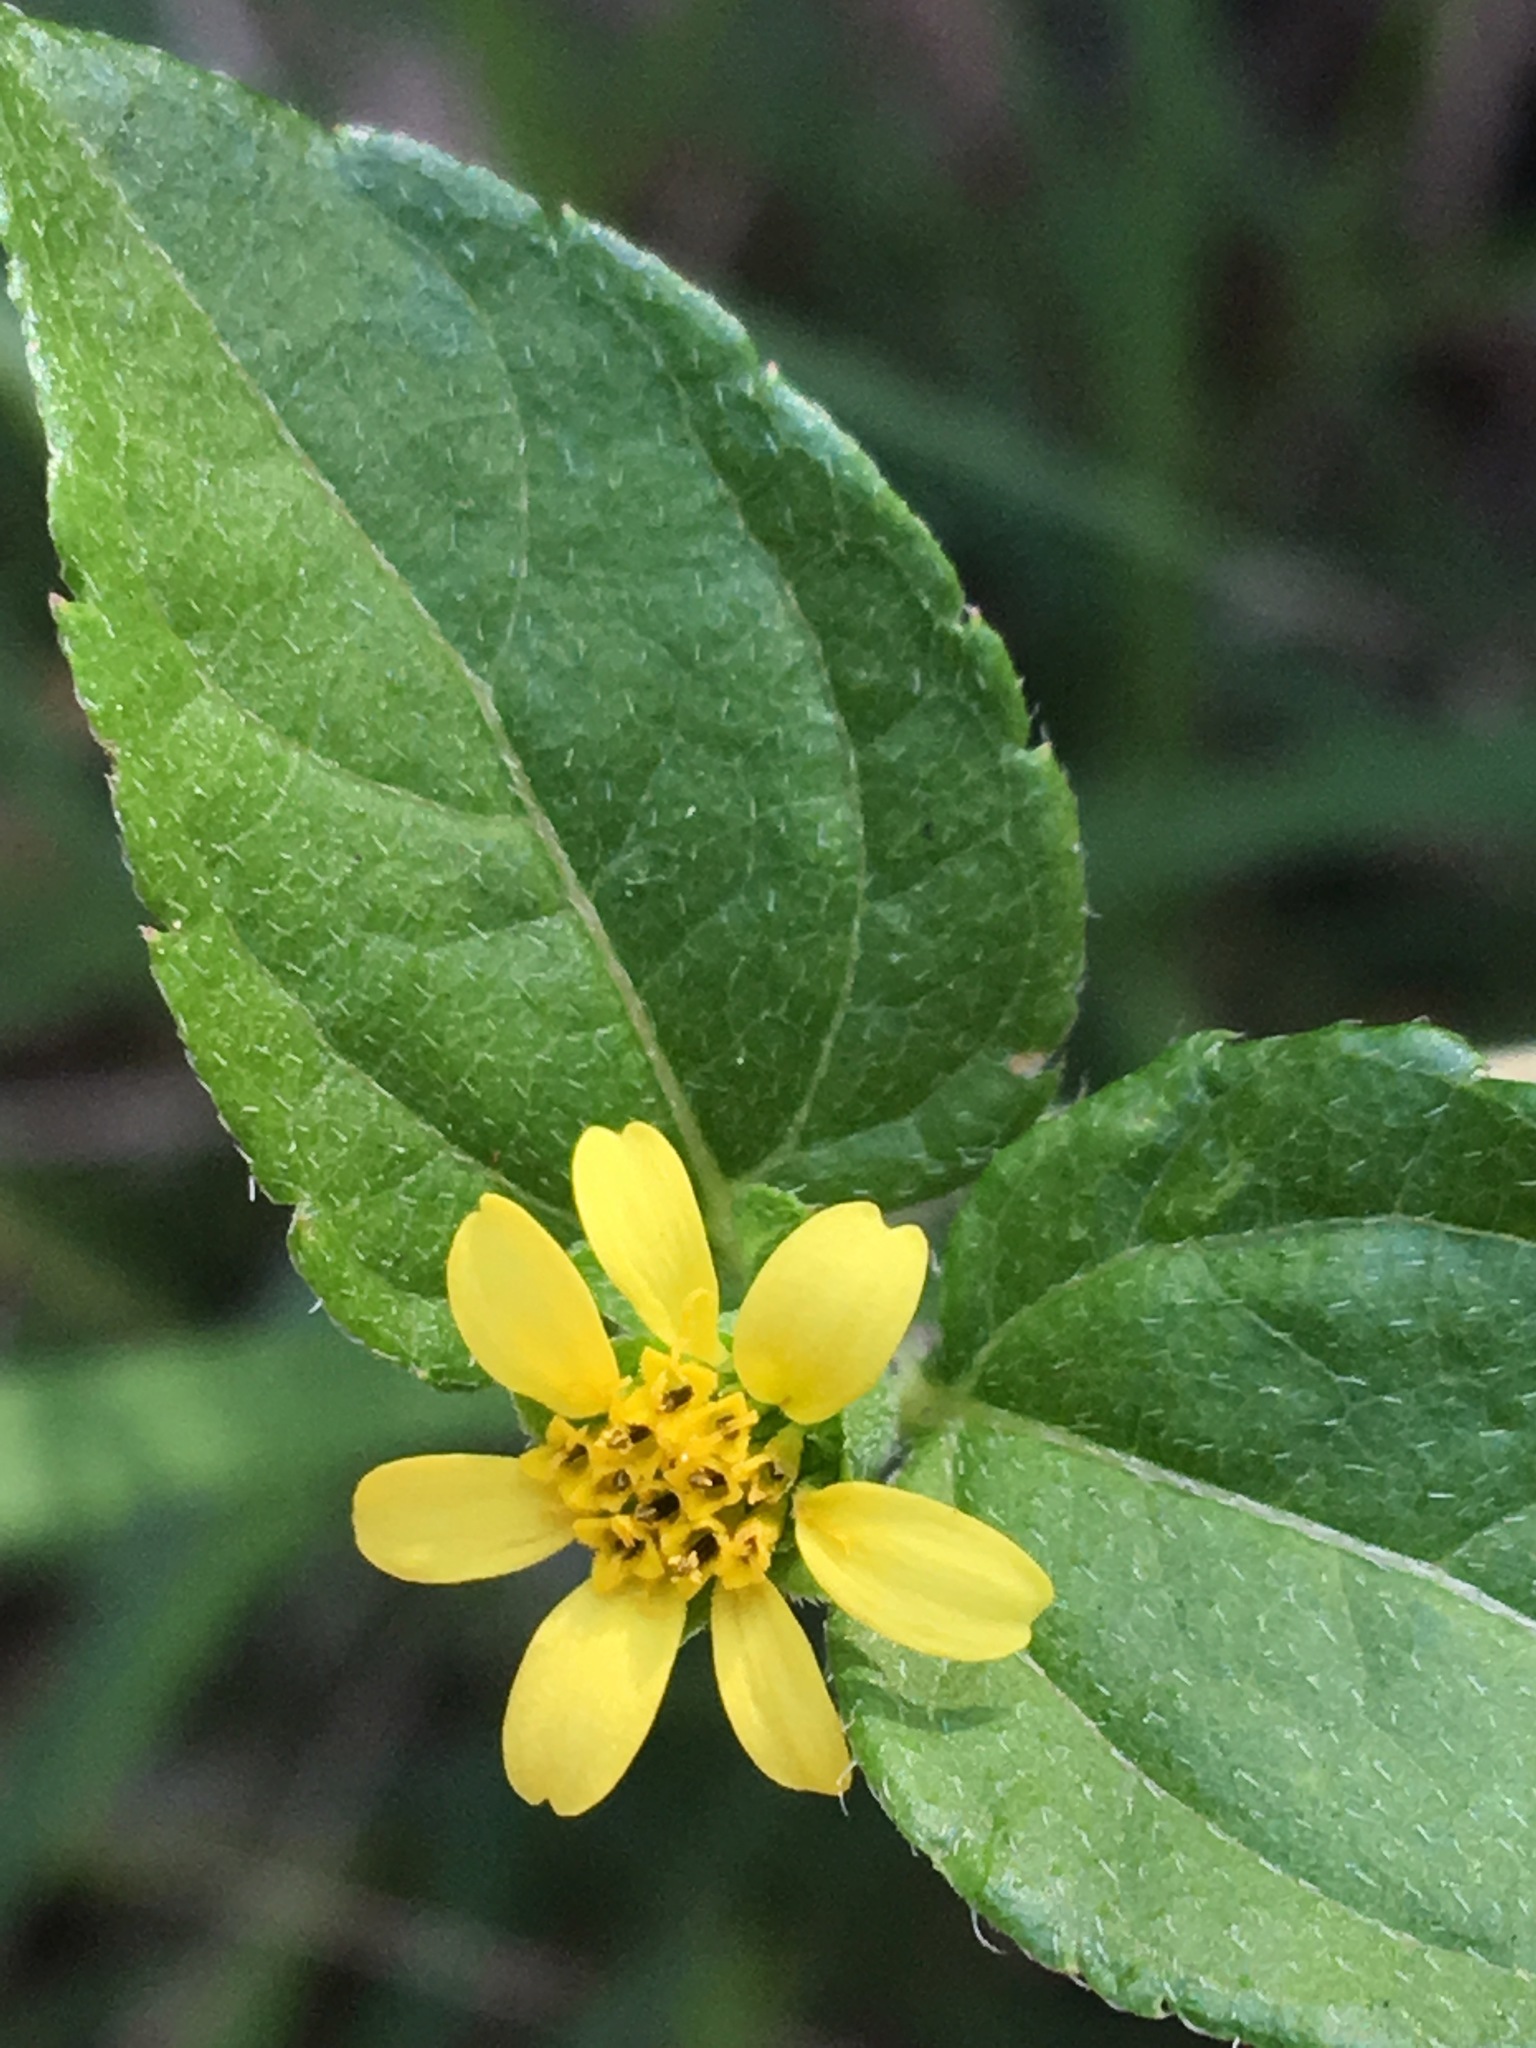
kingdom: Plantae
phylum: Tracheophyta
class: Magnoliopsida
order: Asterales
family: Asteraceae
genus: Calyptocarpus
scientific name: Calyptocarpus vialis
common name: Straggler daisy
